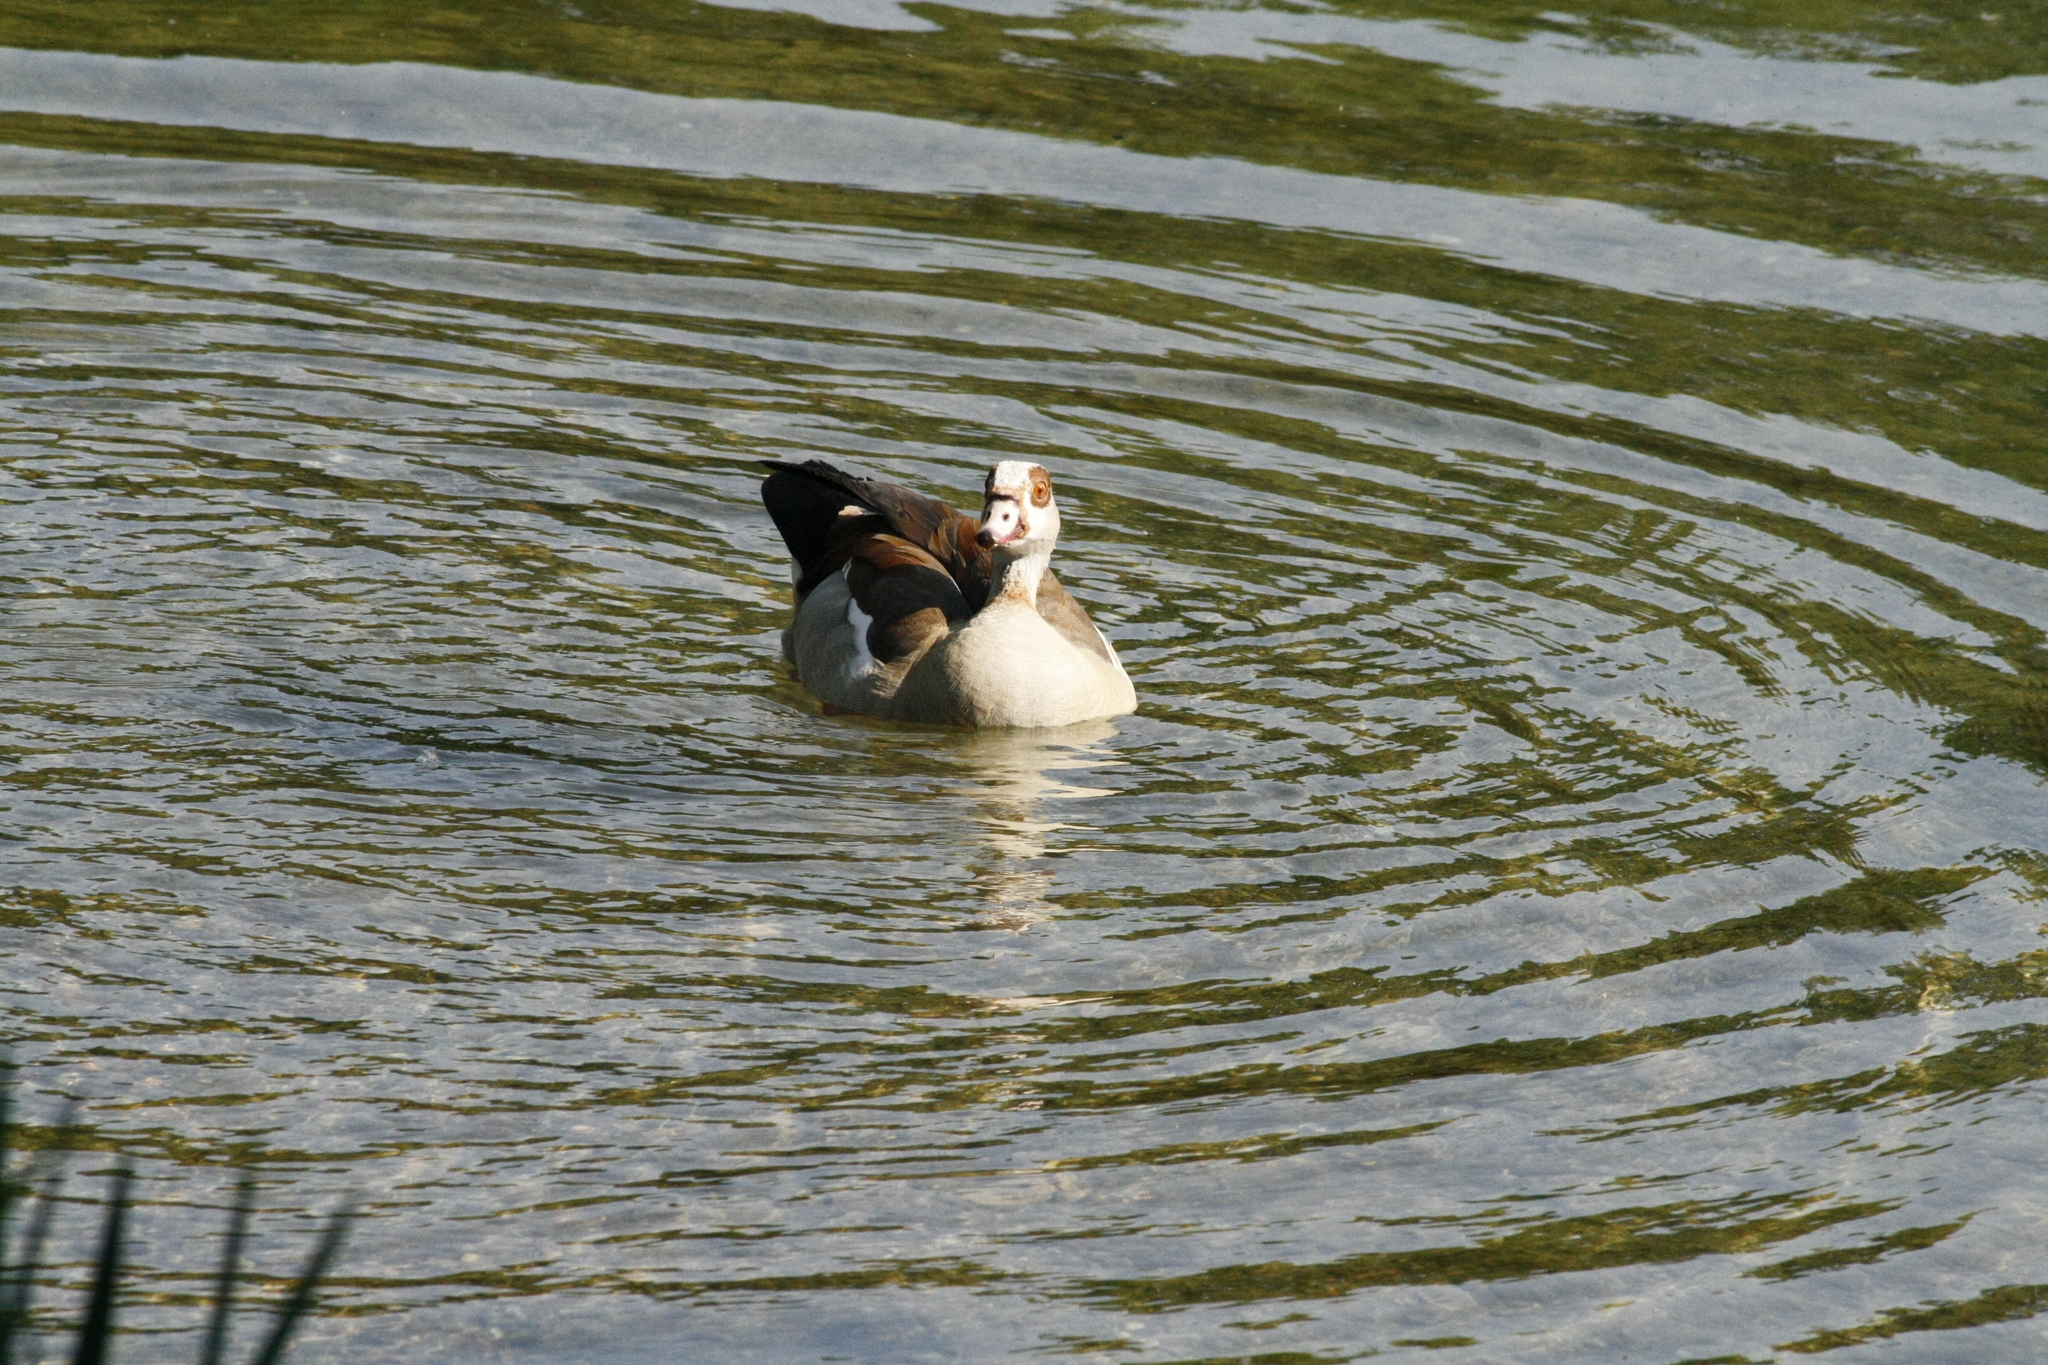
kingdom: Animalia
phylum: Chordata
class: Aves
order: Anseriformes
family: Anatidae
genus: Alopochen
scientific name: Alopochen aegyptiaca
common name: Egyptian goose
